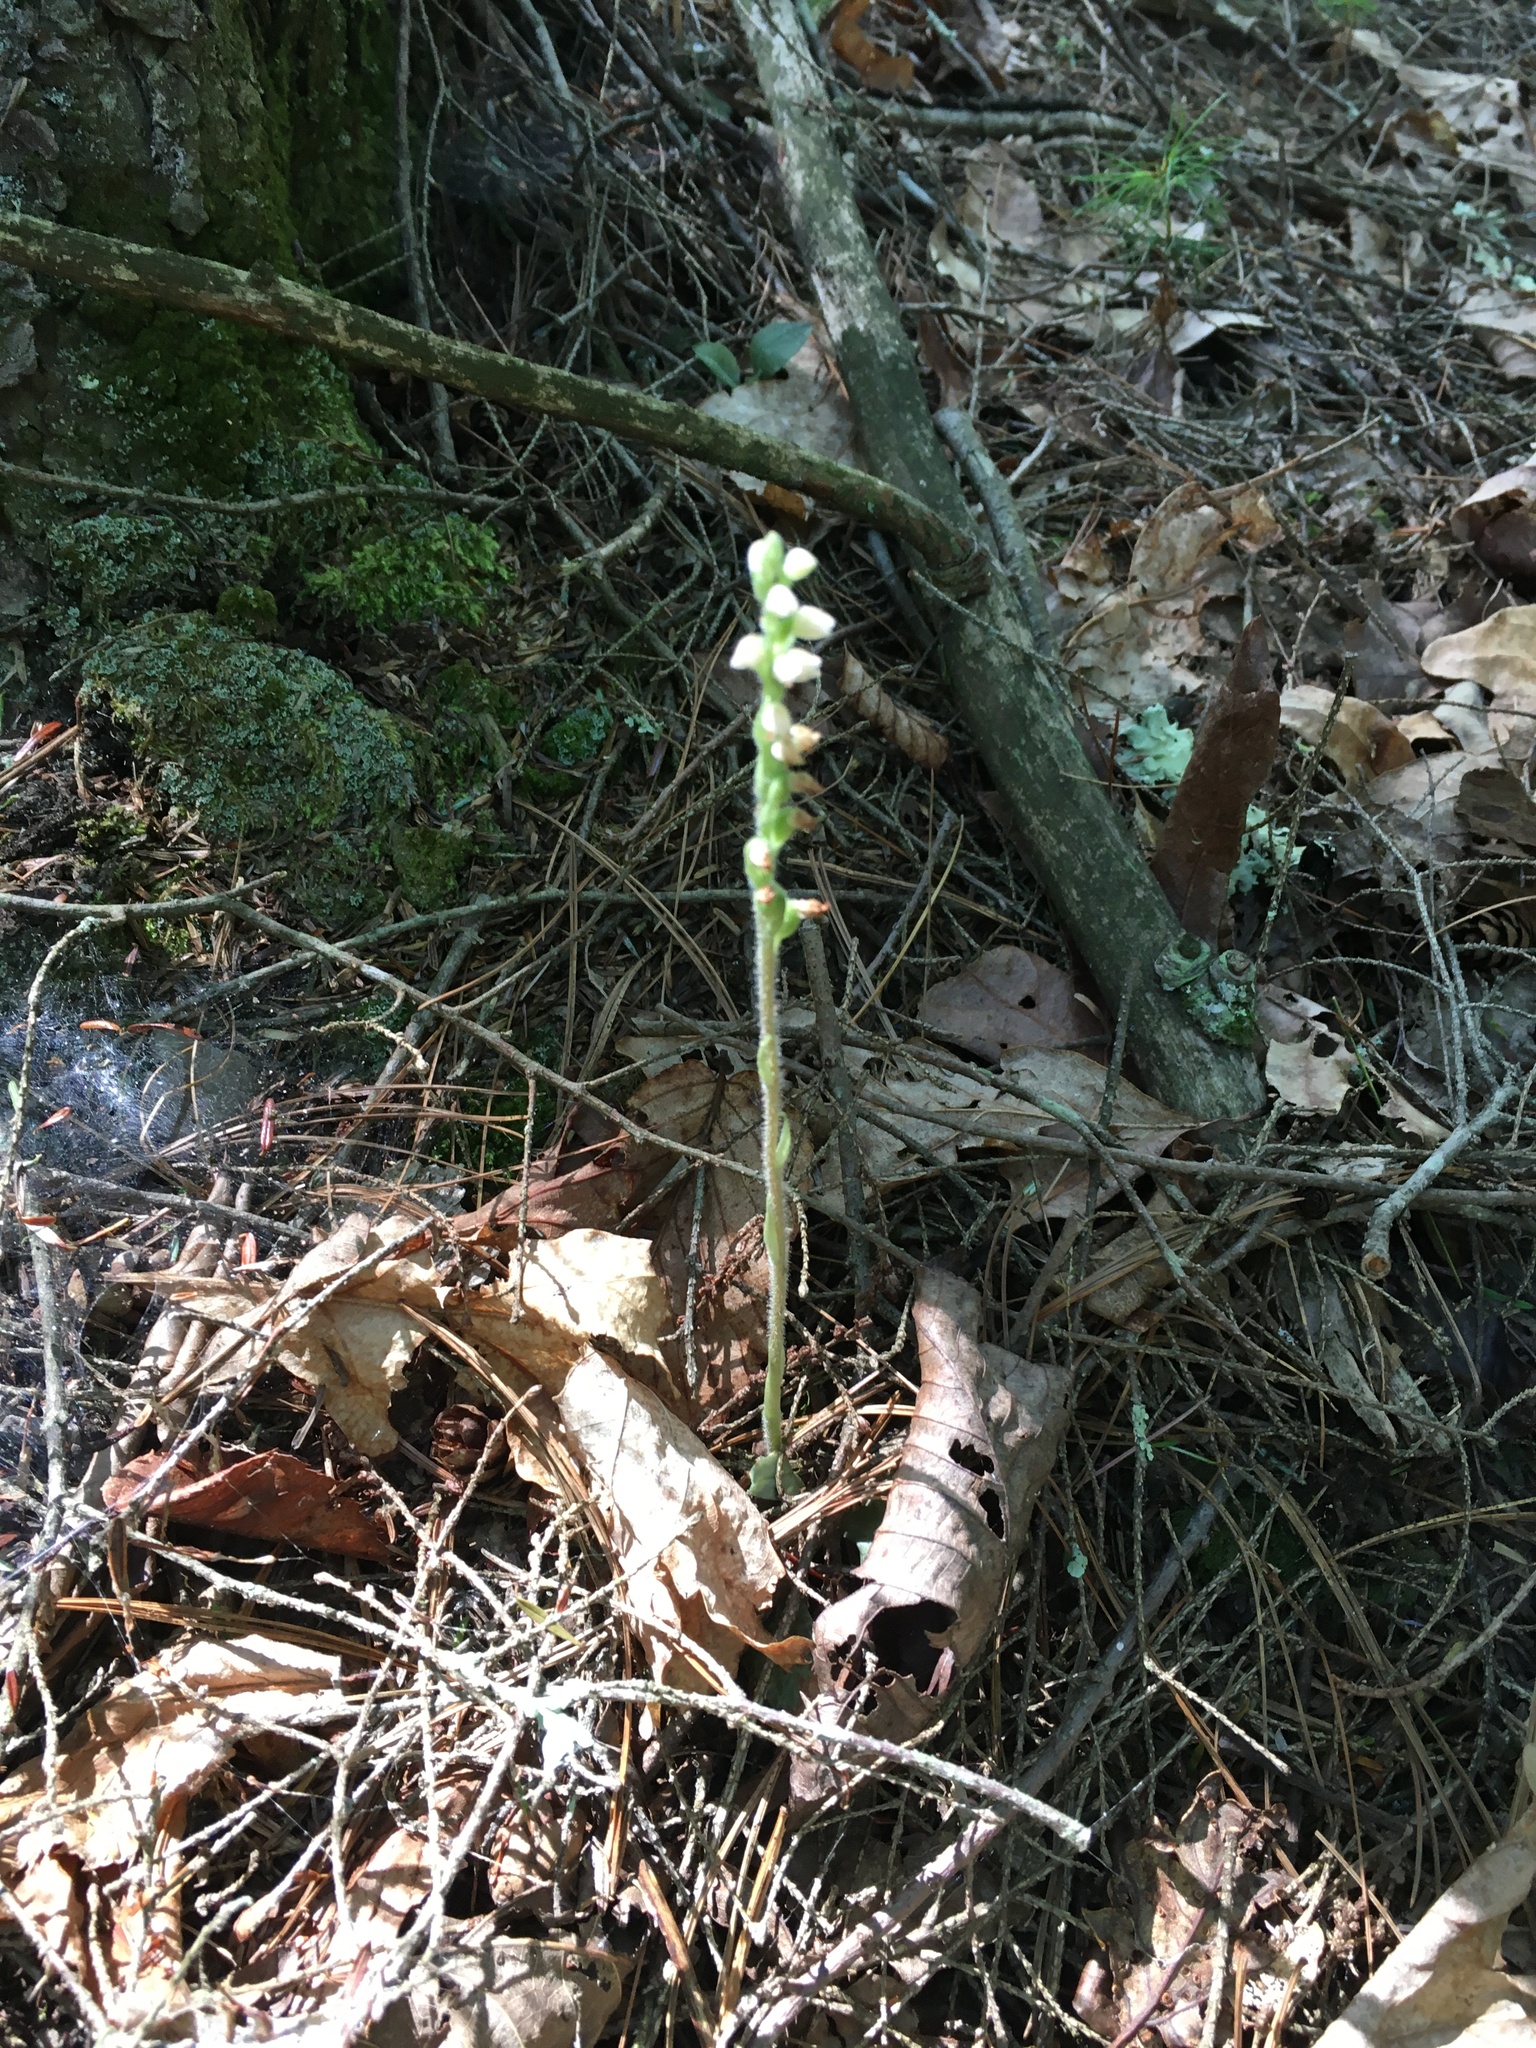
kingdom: Plantae
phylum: Tracheophyta
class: Liliopsida
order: Asparagales
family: Orchidaceae
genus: Goodyera
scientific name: Goodyera tesselata
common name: Checkered rattlesnake-plantain
